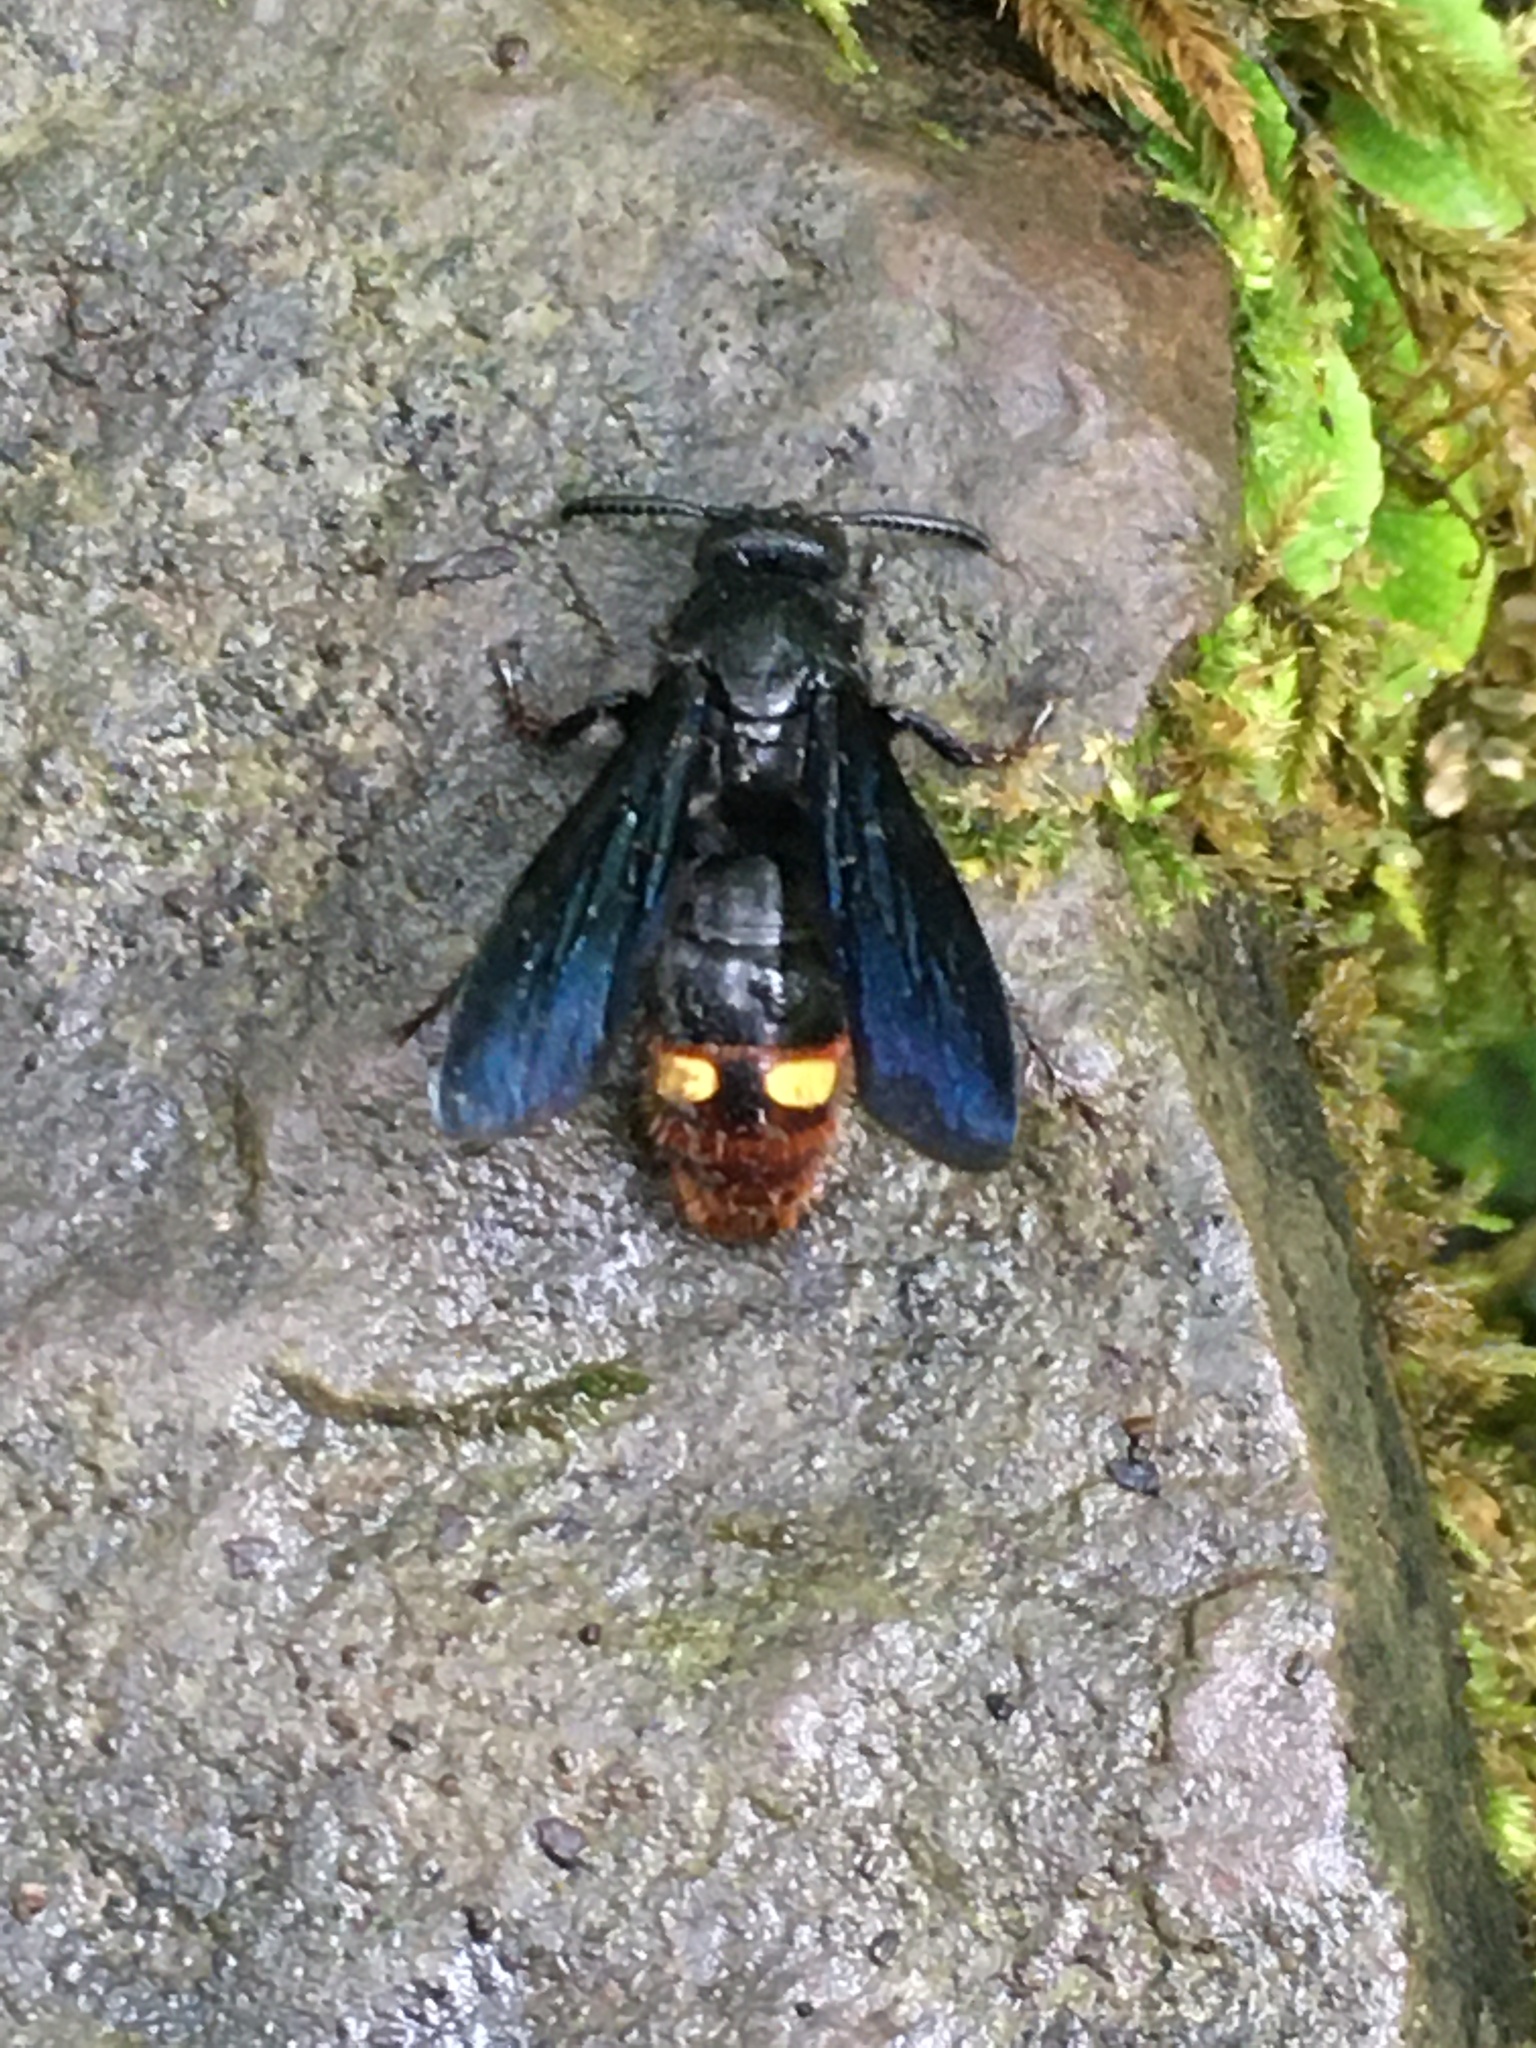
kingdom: Animalia
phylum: Arthropoda
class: Insecta
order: Hymenoptera
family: Scoliidae
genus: Scolia
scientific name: Scolia dubia
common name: Blue-winged scoliid wasp
